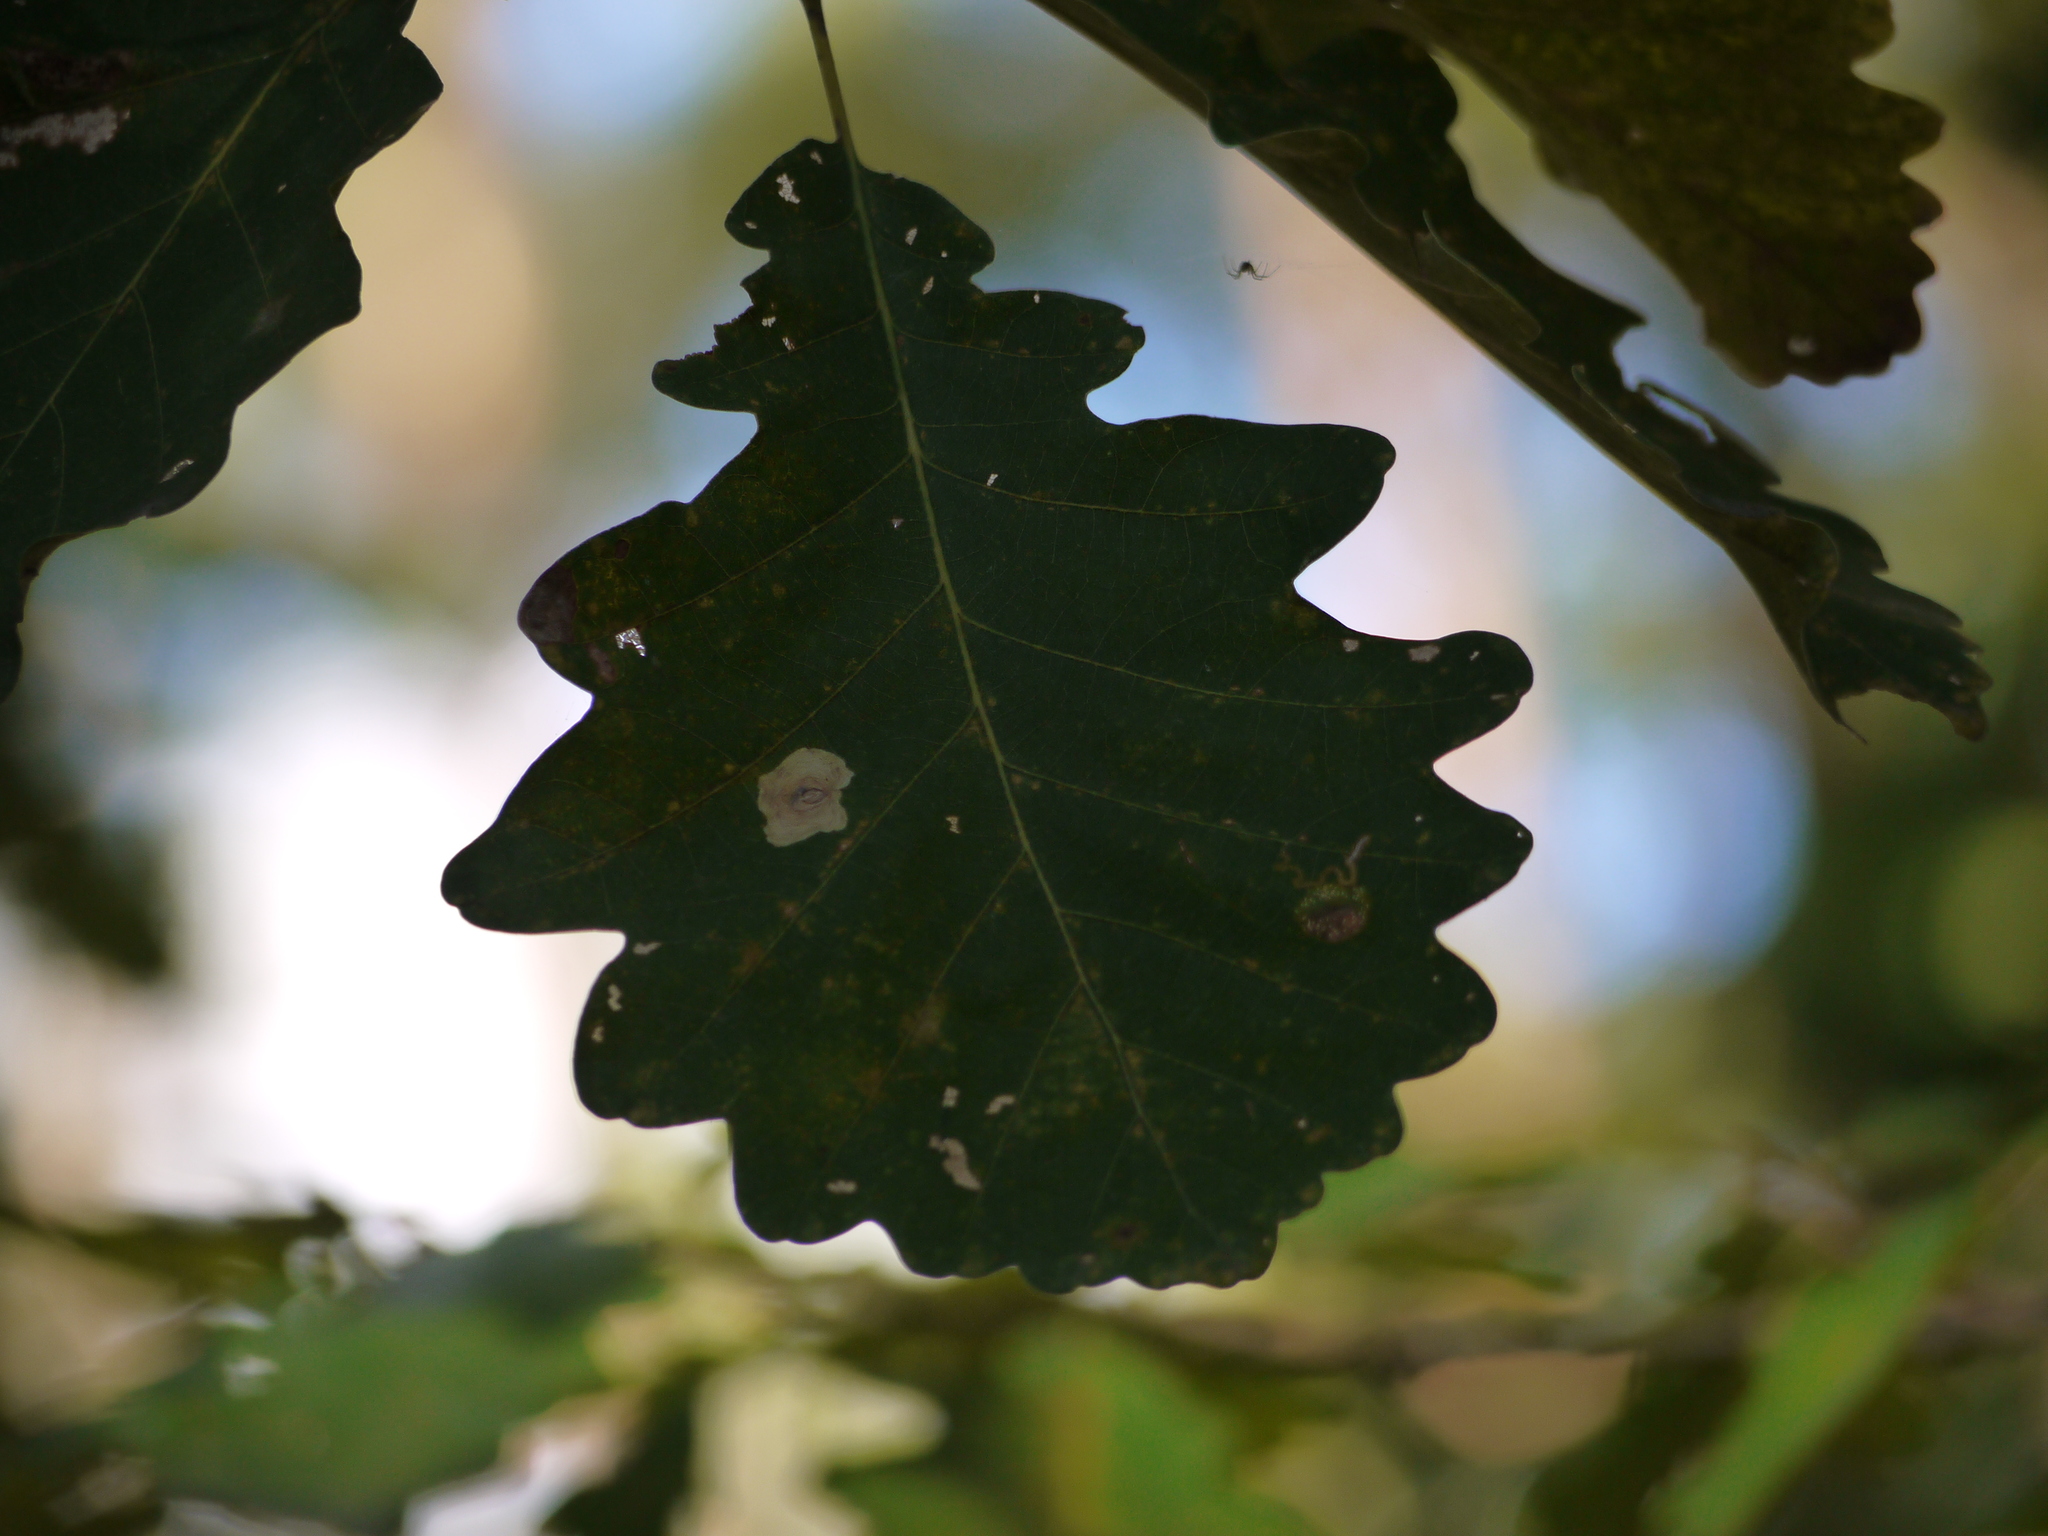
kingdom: Plantae
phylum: Tracheophyta
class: Magnoliopsida
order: Fagales
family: Fagaceae
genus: Quercus
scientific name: Quercus robur
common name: Pedunculate oak
